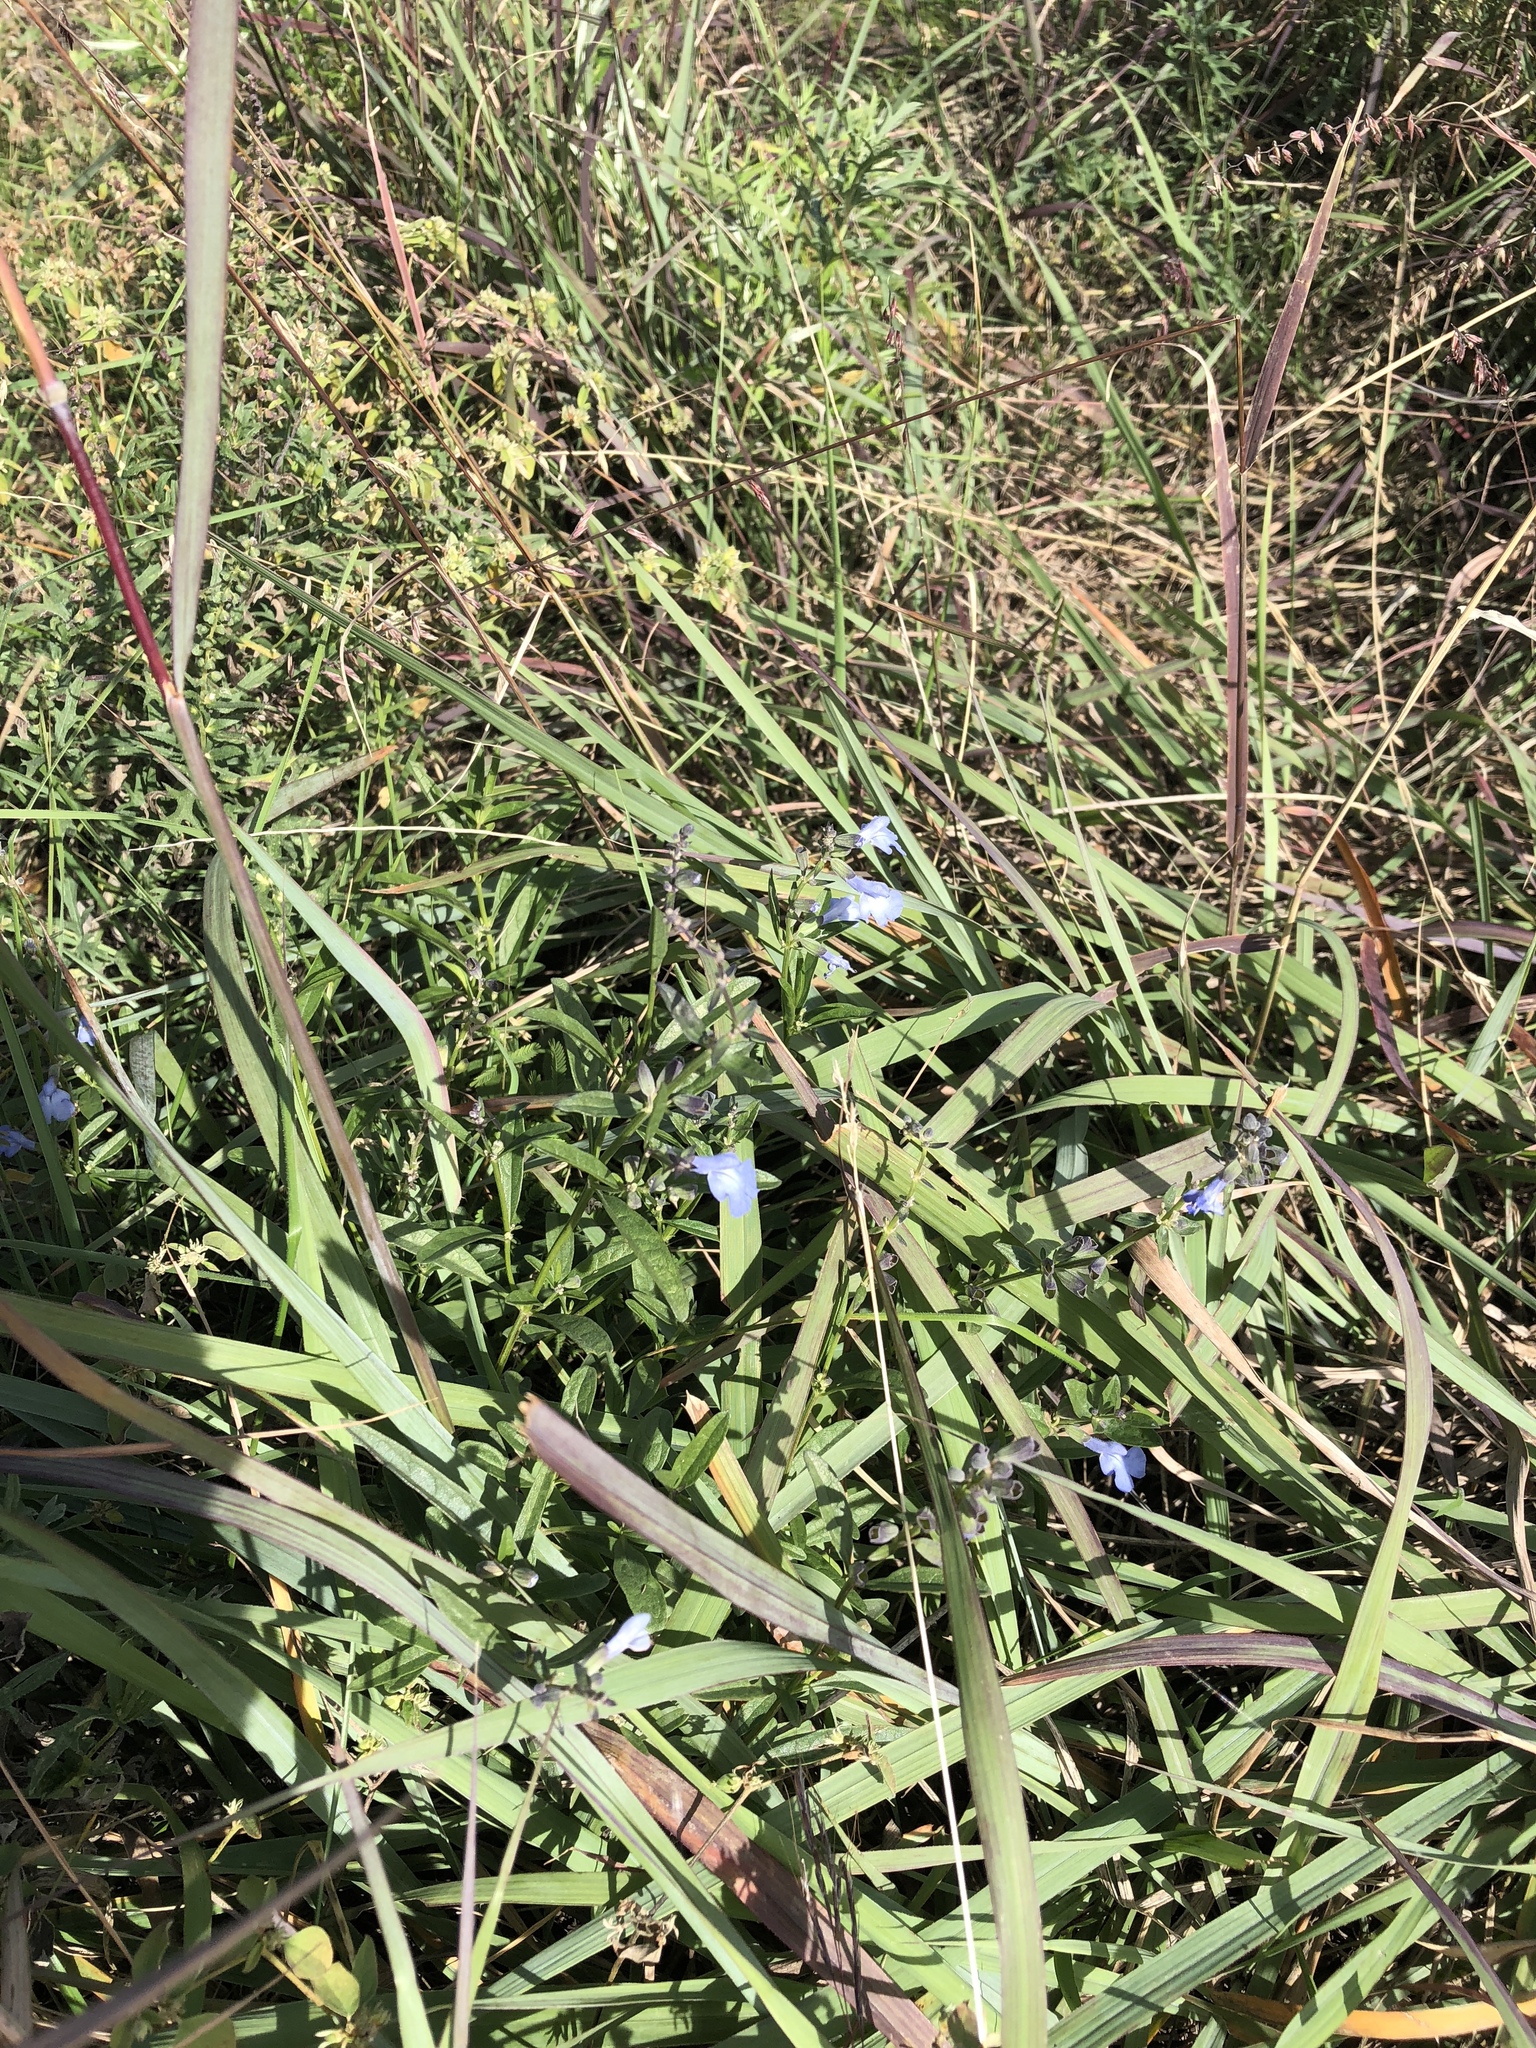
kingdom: Plantae
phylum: Tracheophyta
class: Magnoliopsida
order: Lamiales
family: Lamiaceae
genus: Salvia
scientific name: Salvia azurea
